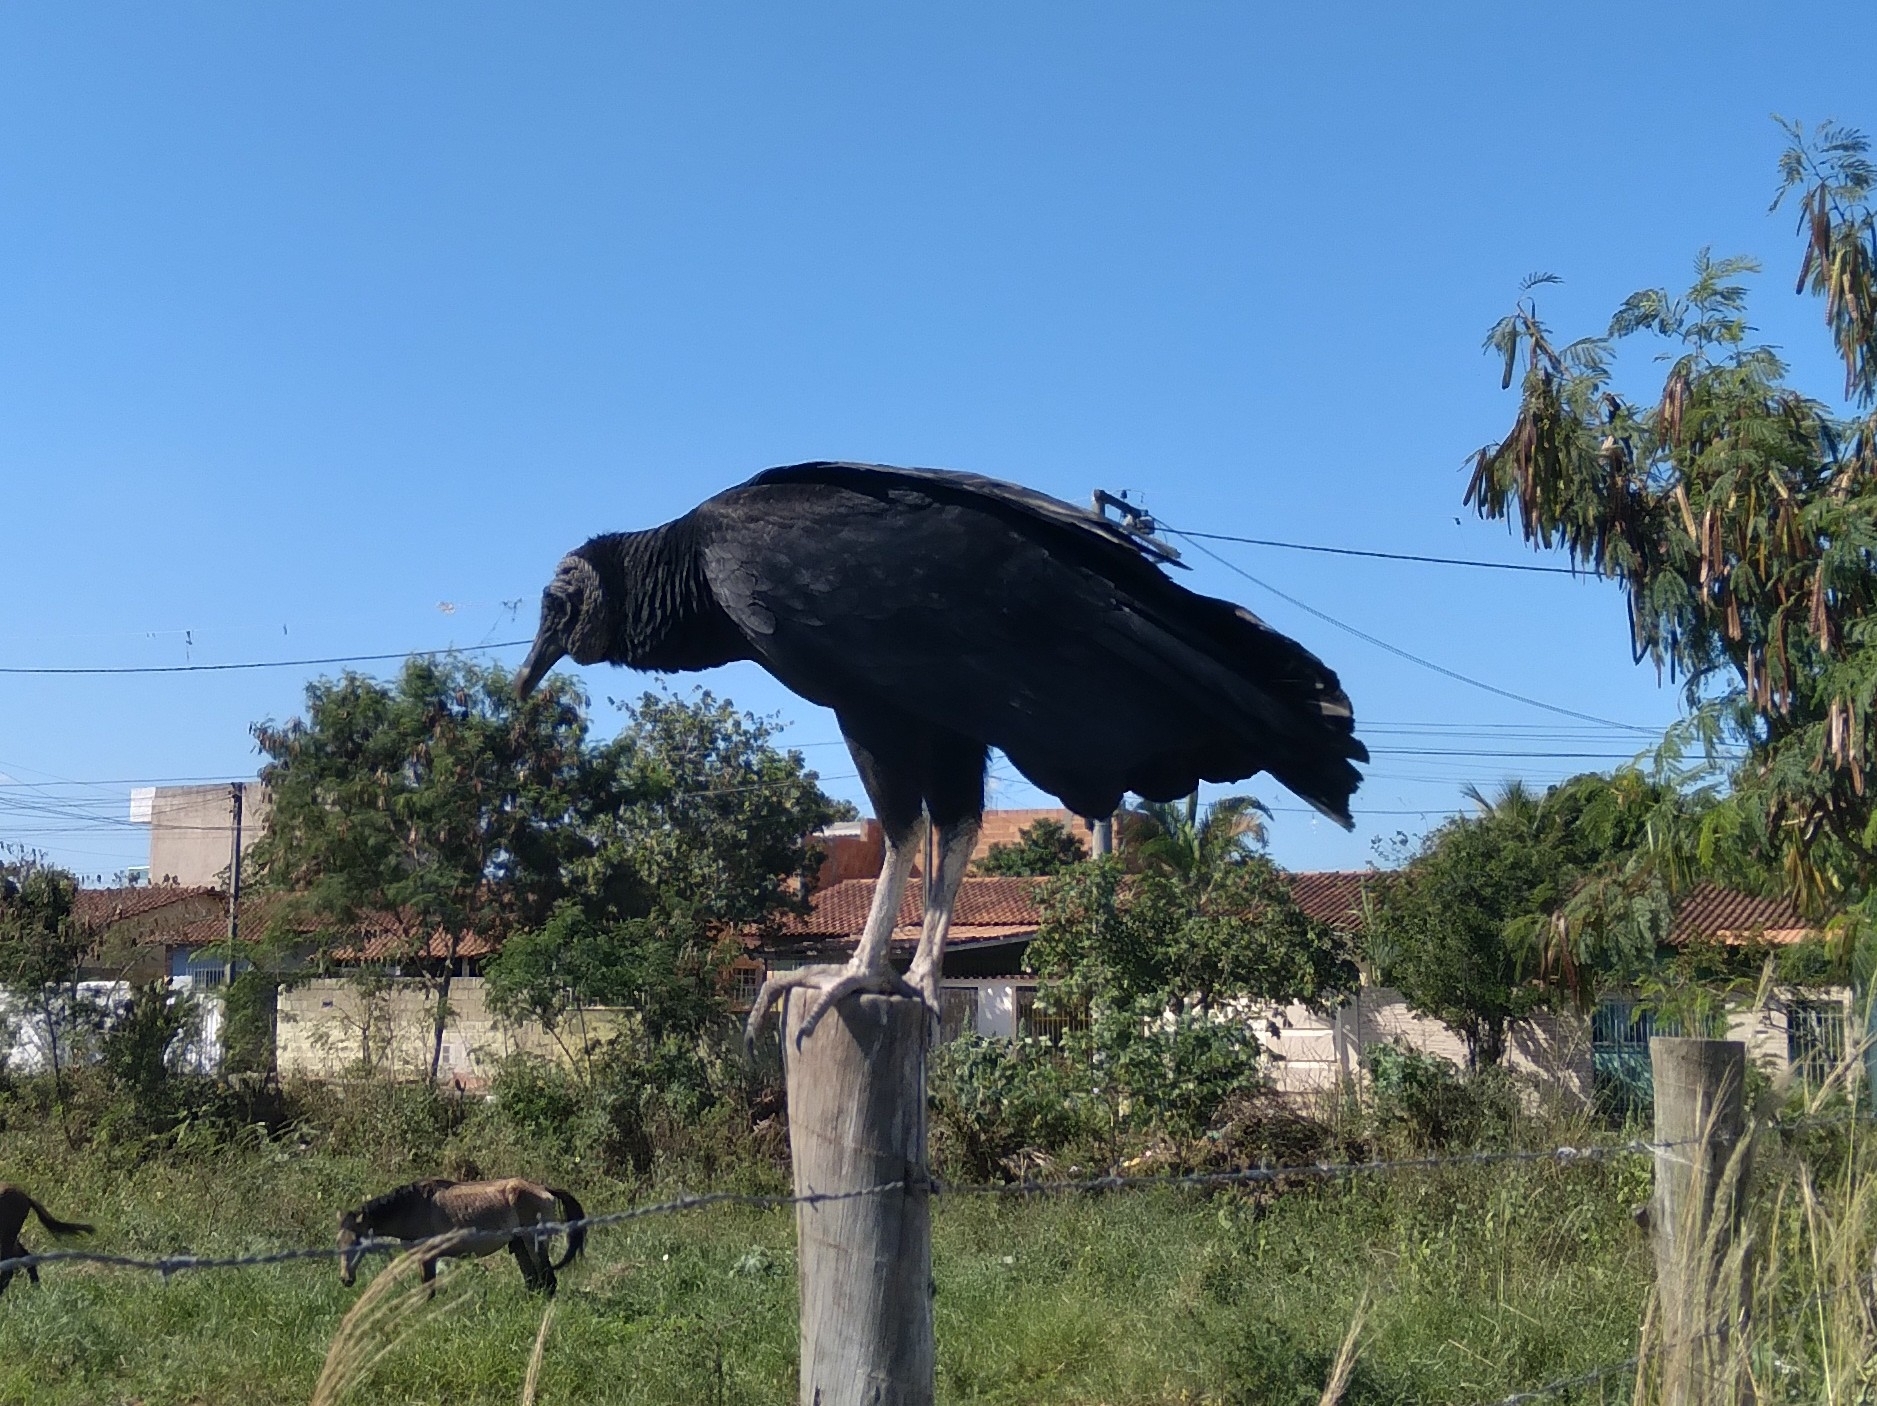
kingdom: Animalia
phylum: Chordata
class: Aves
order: Accipitriformes
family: Cathartidae
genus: Coragyps
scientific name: Coragyps atratus
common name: Black vulture
